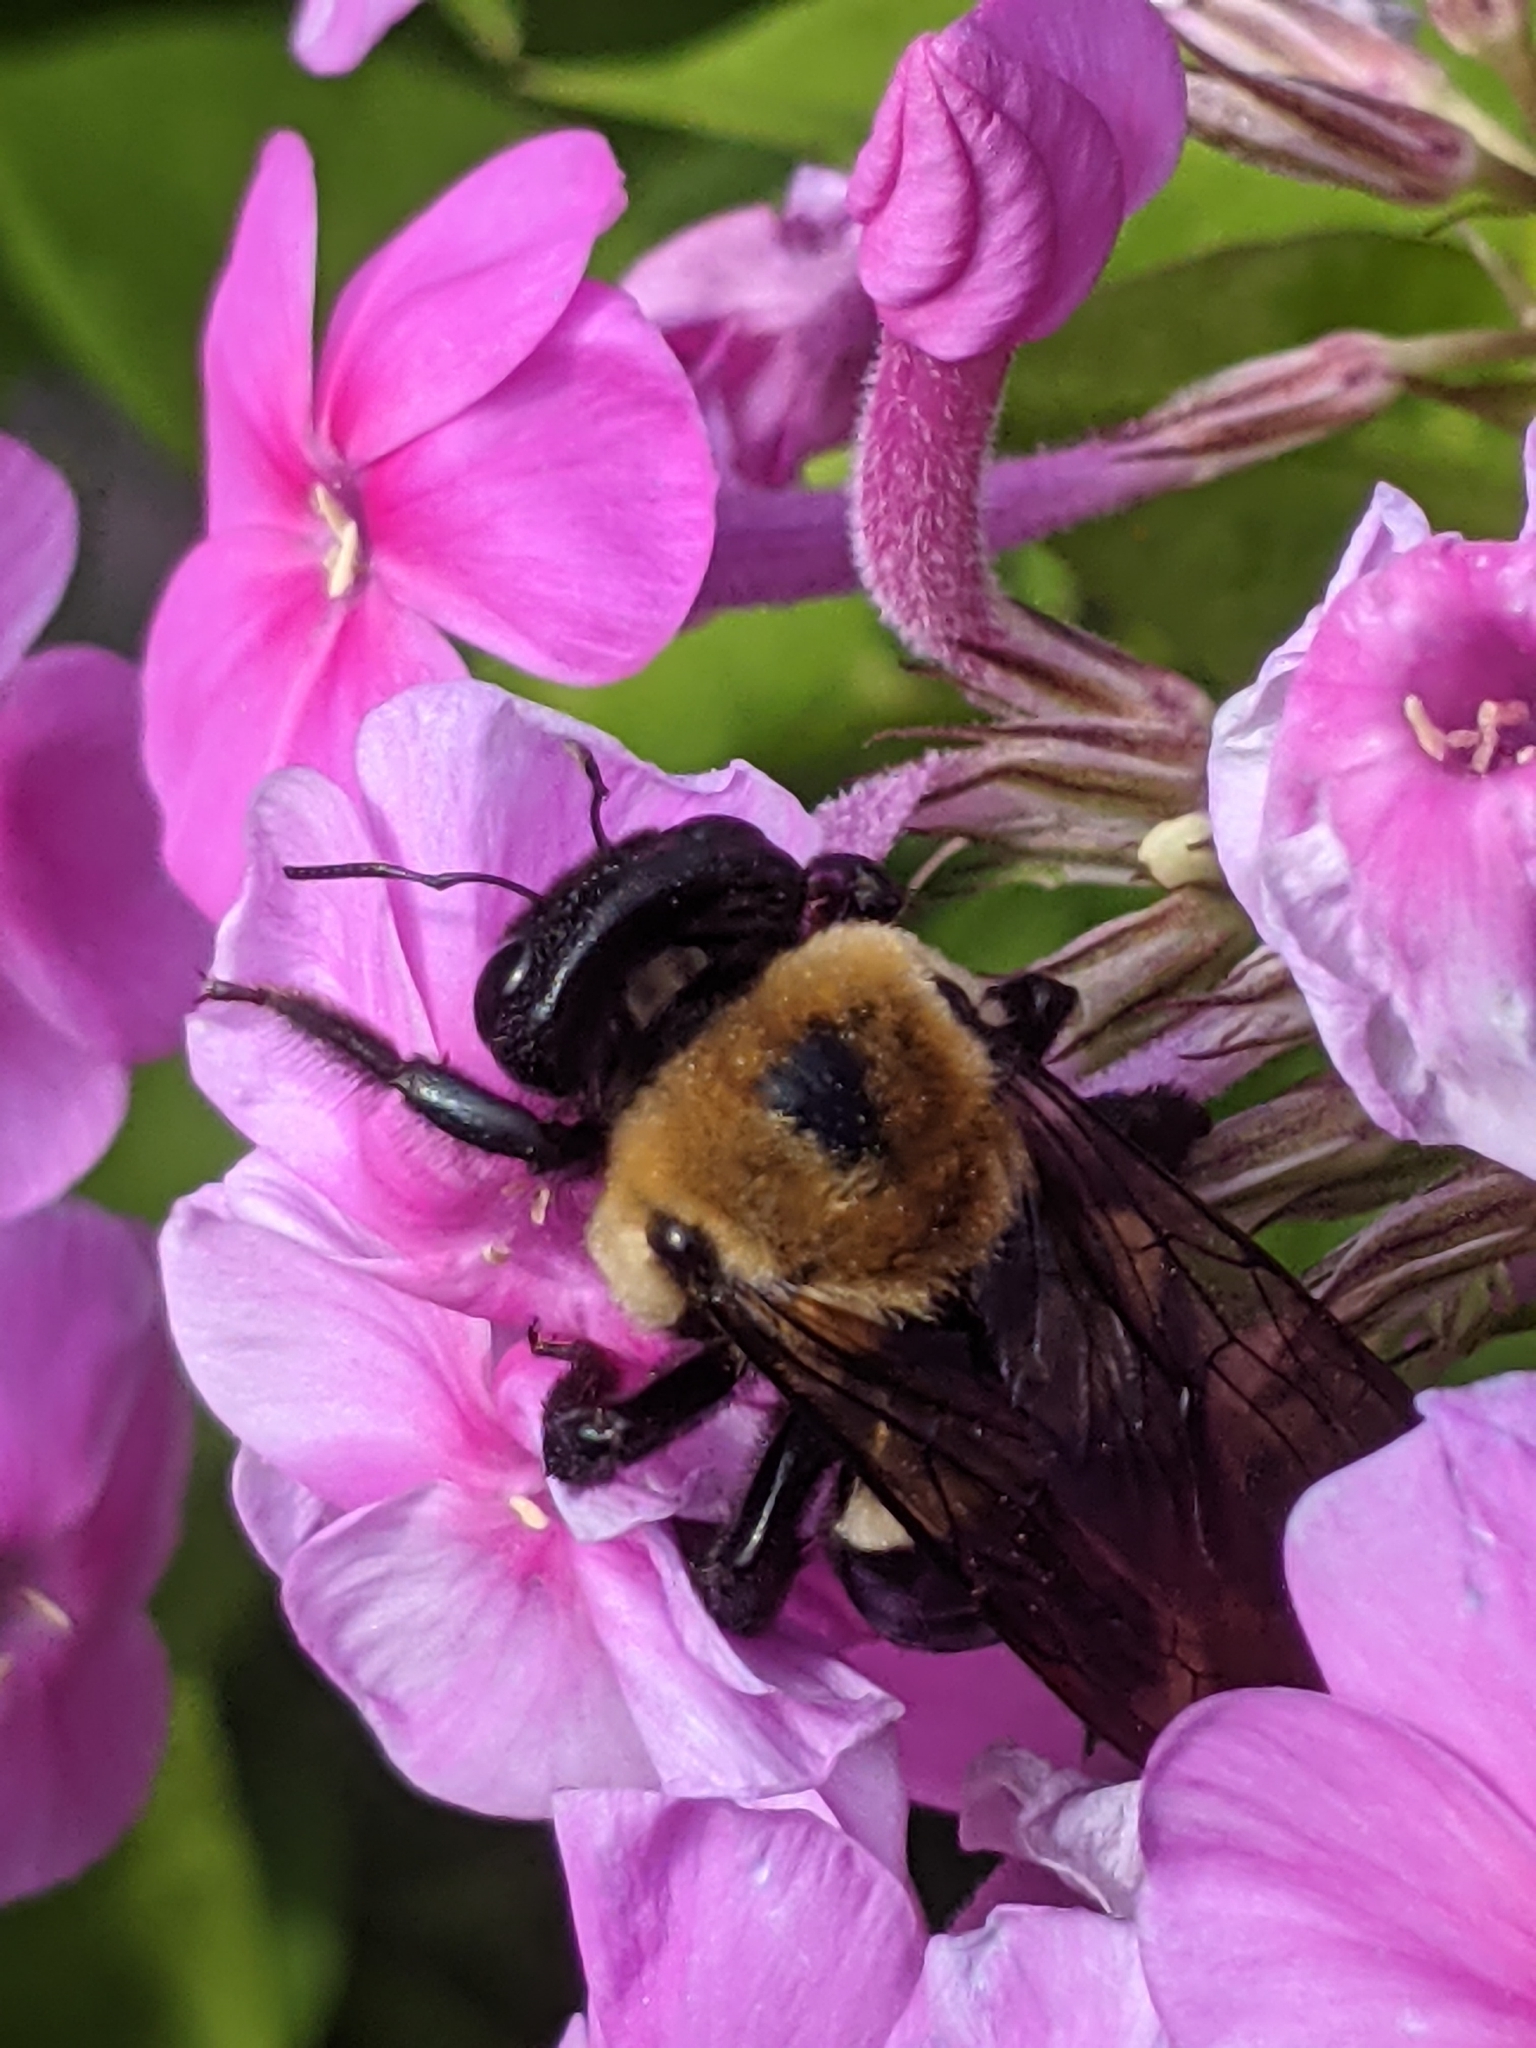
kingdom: Animalia
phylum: Arthropoda
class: Insecta
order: Hymenoptera
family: Apidae
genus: Xylocopa
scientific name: Xylocopa virginica
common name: Carpenter bee
